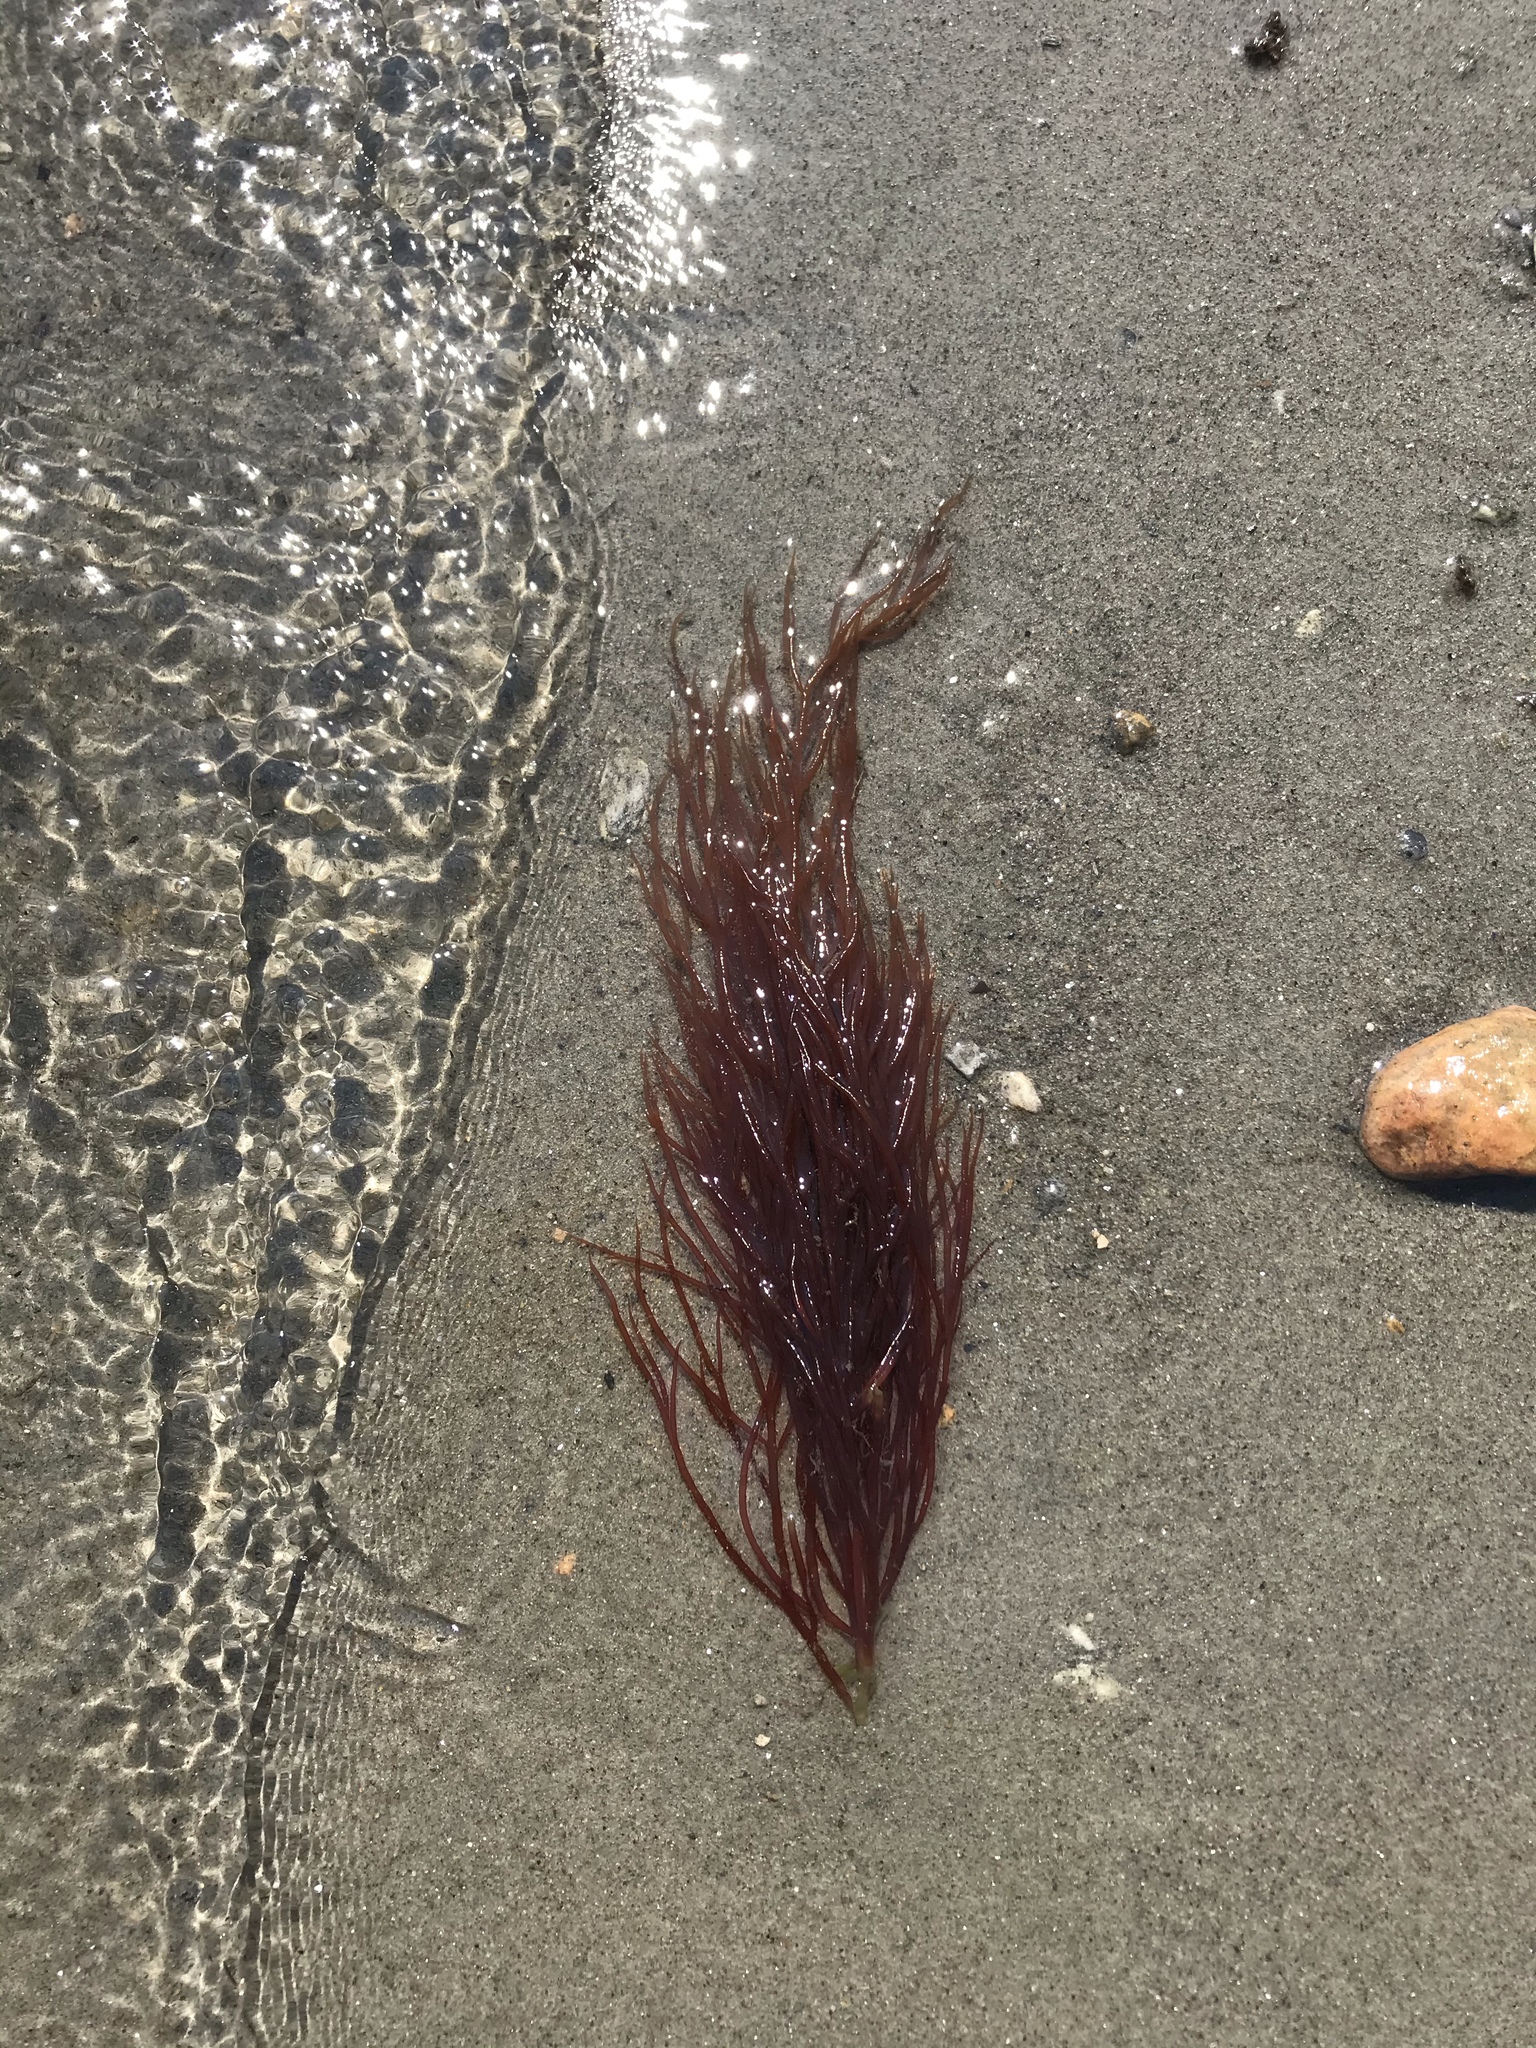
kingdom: Plantae
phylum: Rhodophyta
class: Florideophyceae
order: Gigartinales
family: Solieriaceae
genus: Agardhiella
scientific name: Agardhiella subulata
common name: Agardh's red weed
